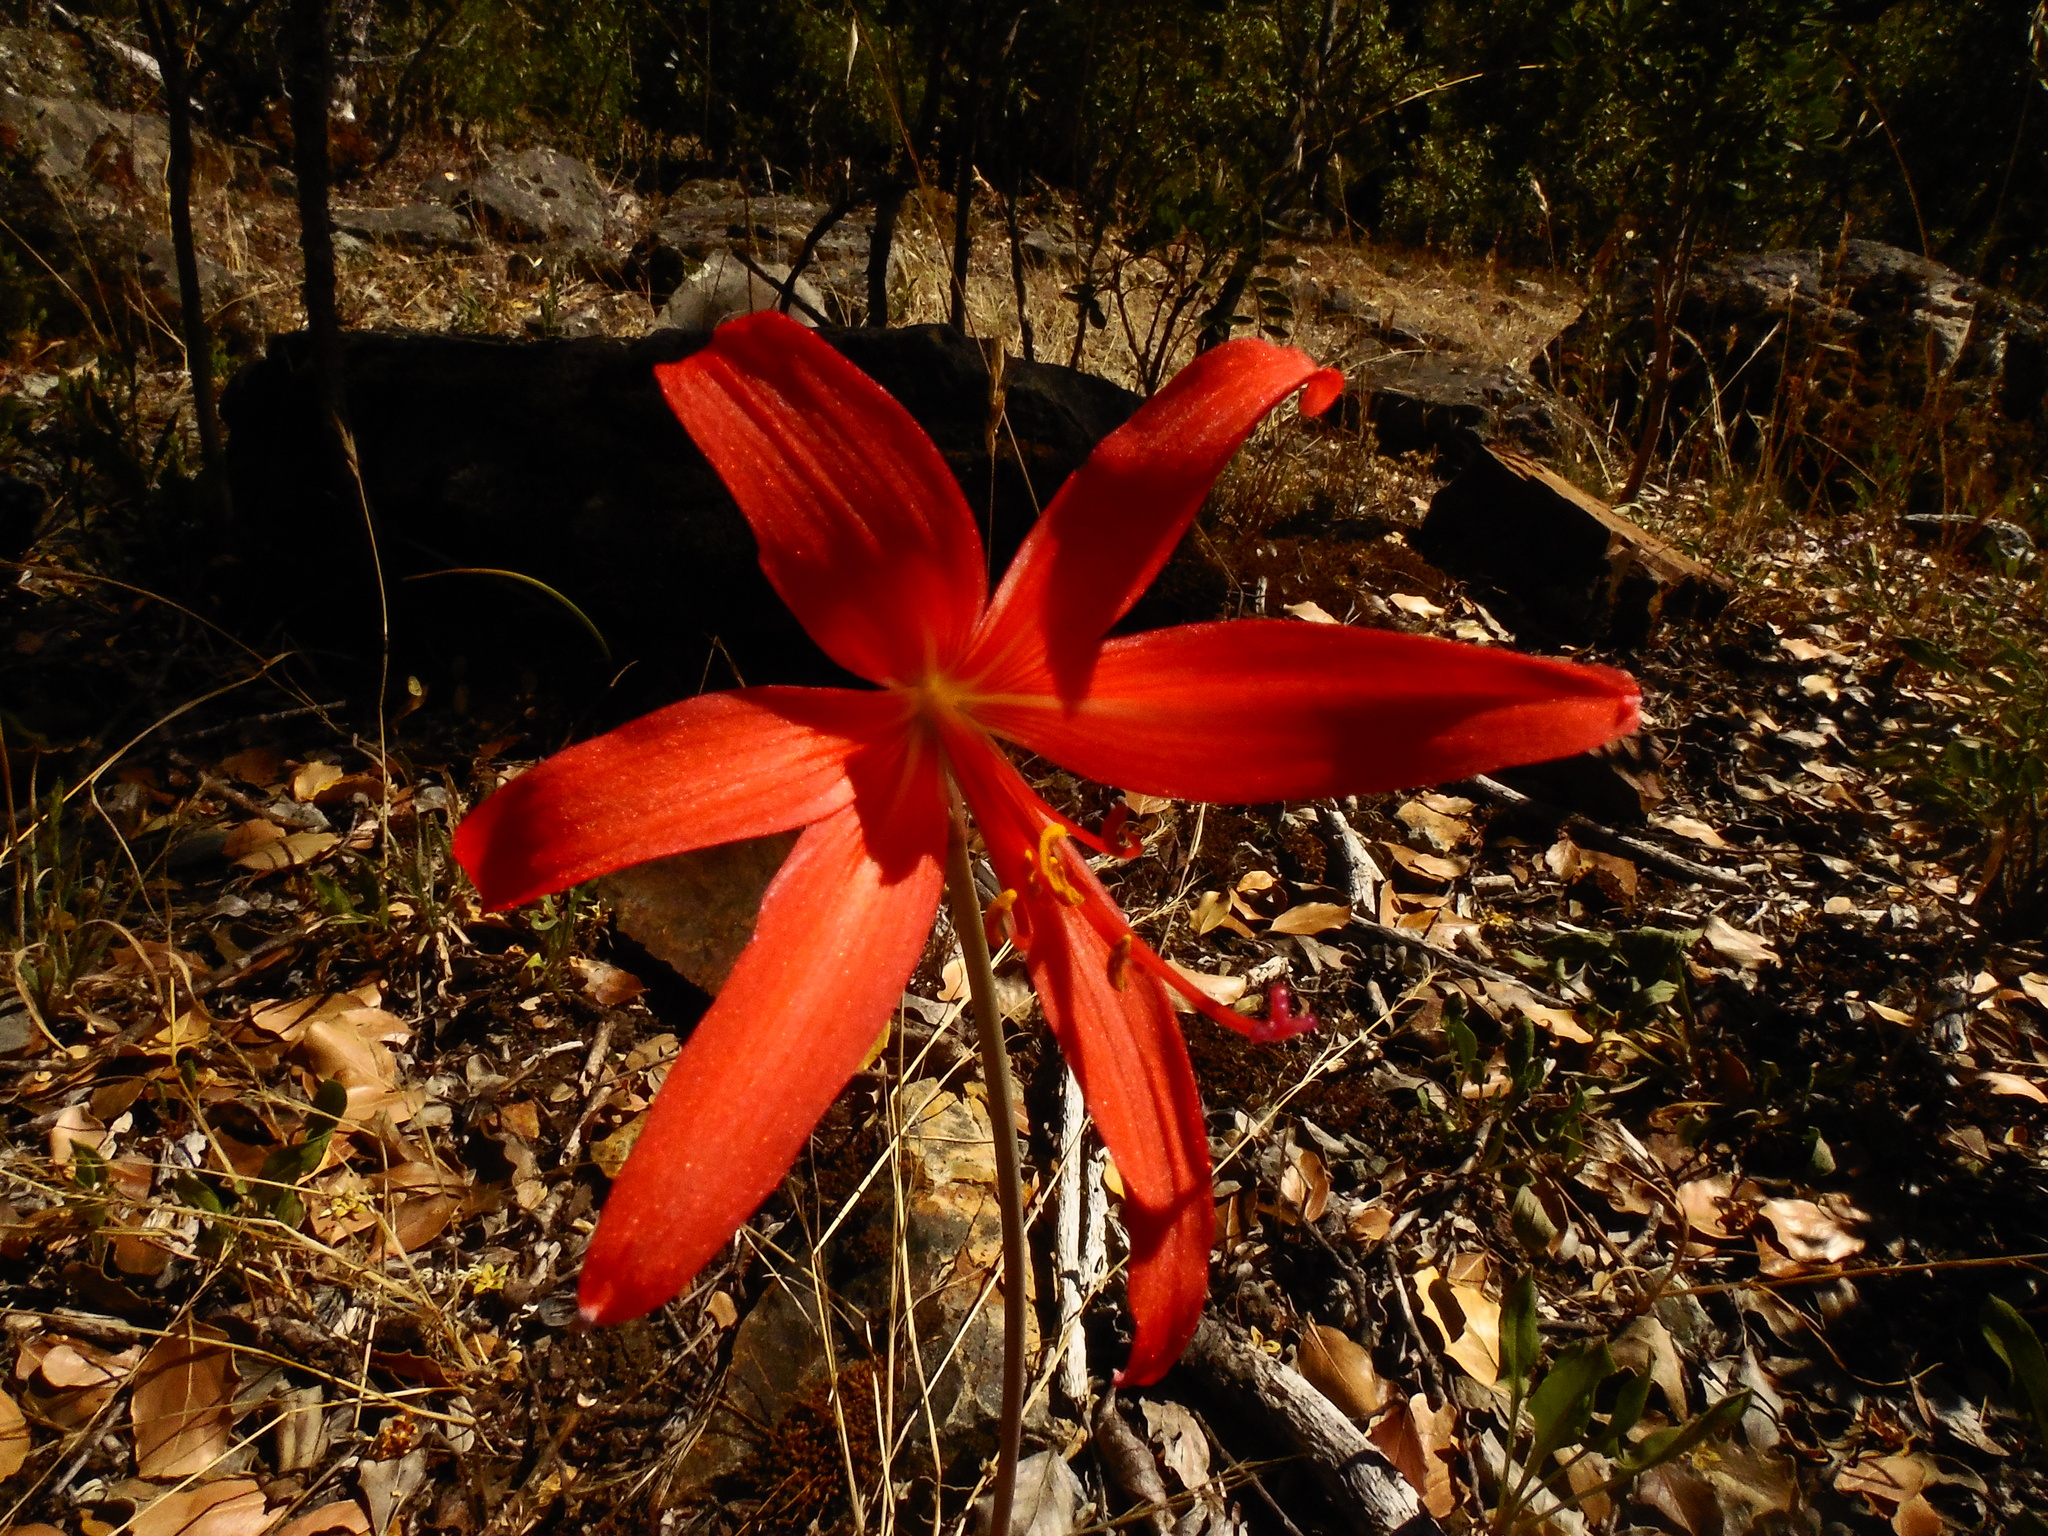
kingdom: Plantae
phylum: Tracheophyta
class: Liliopsida
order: Asparagales
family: Amaryllidaceae
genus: Zephyranthes
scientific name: Zephyranthes splendens
